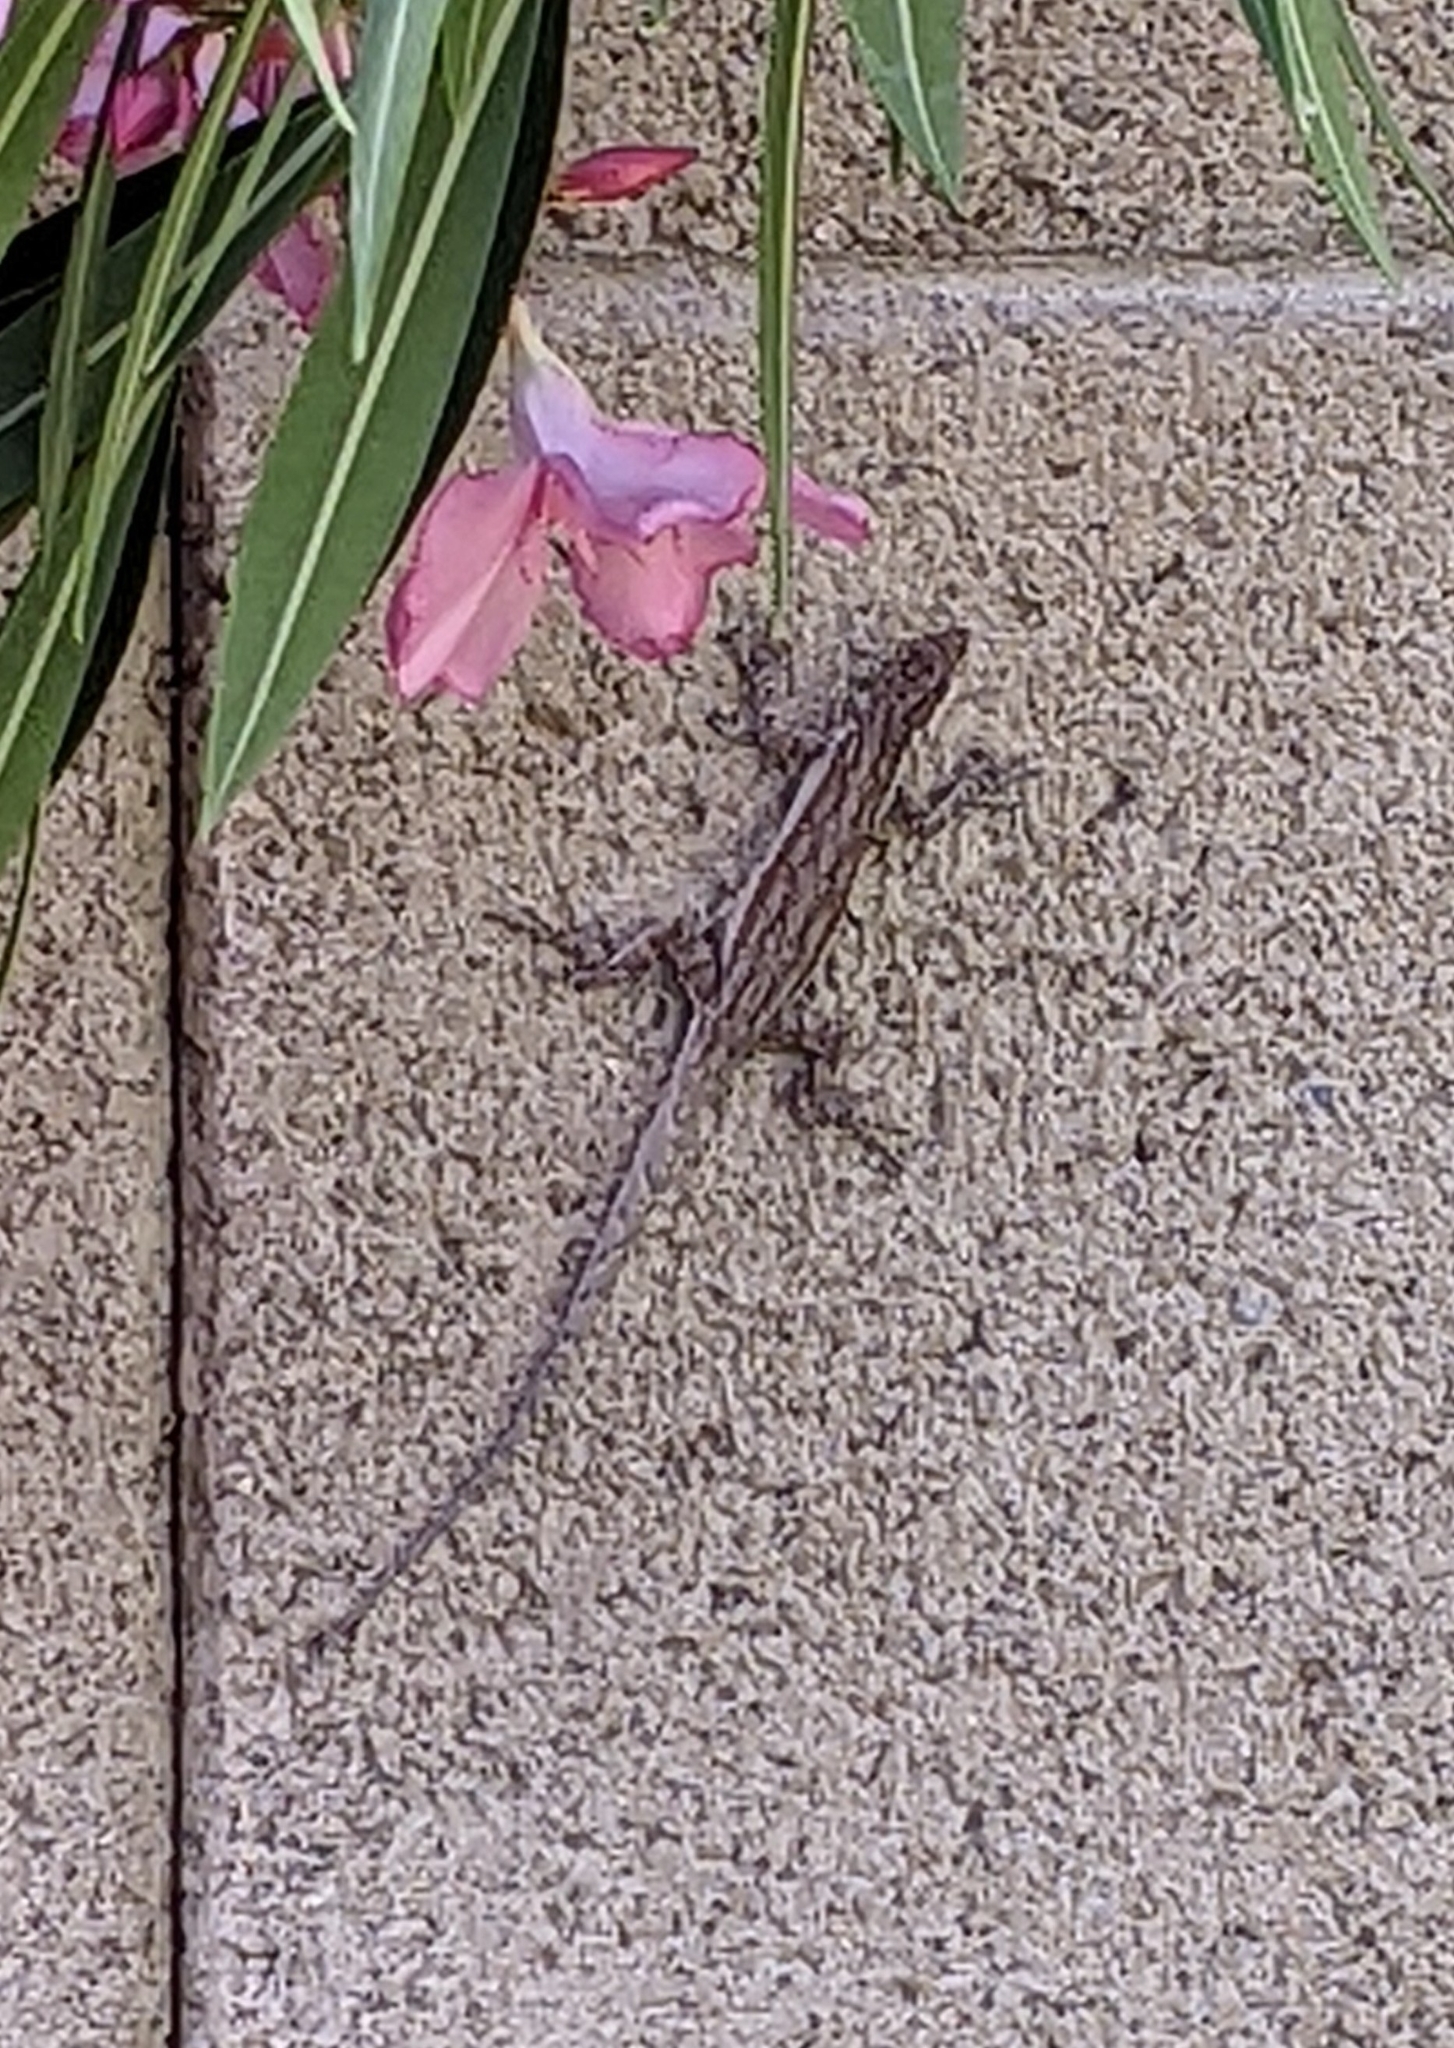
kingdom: Animalia
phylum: Chordata
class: Squamata
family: Phrynosomatidae
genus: Urosaurus
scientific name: Urosaurus ornatus
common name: Ornate tree lizard
